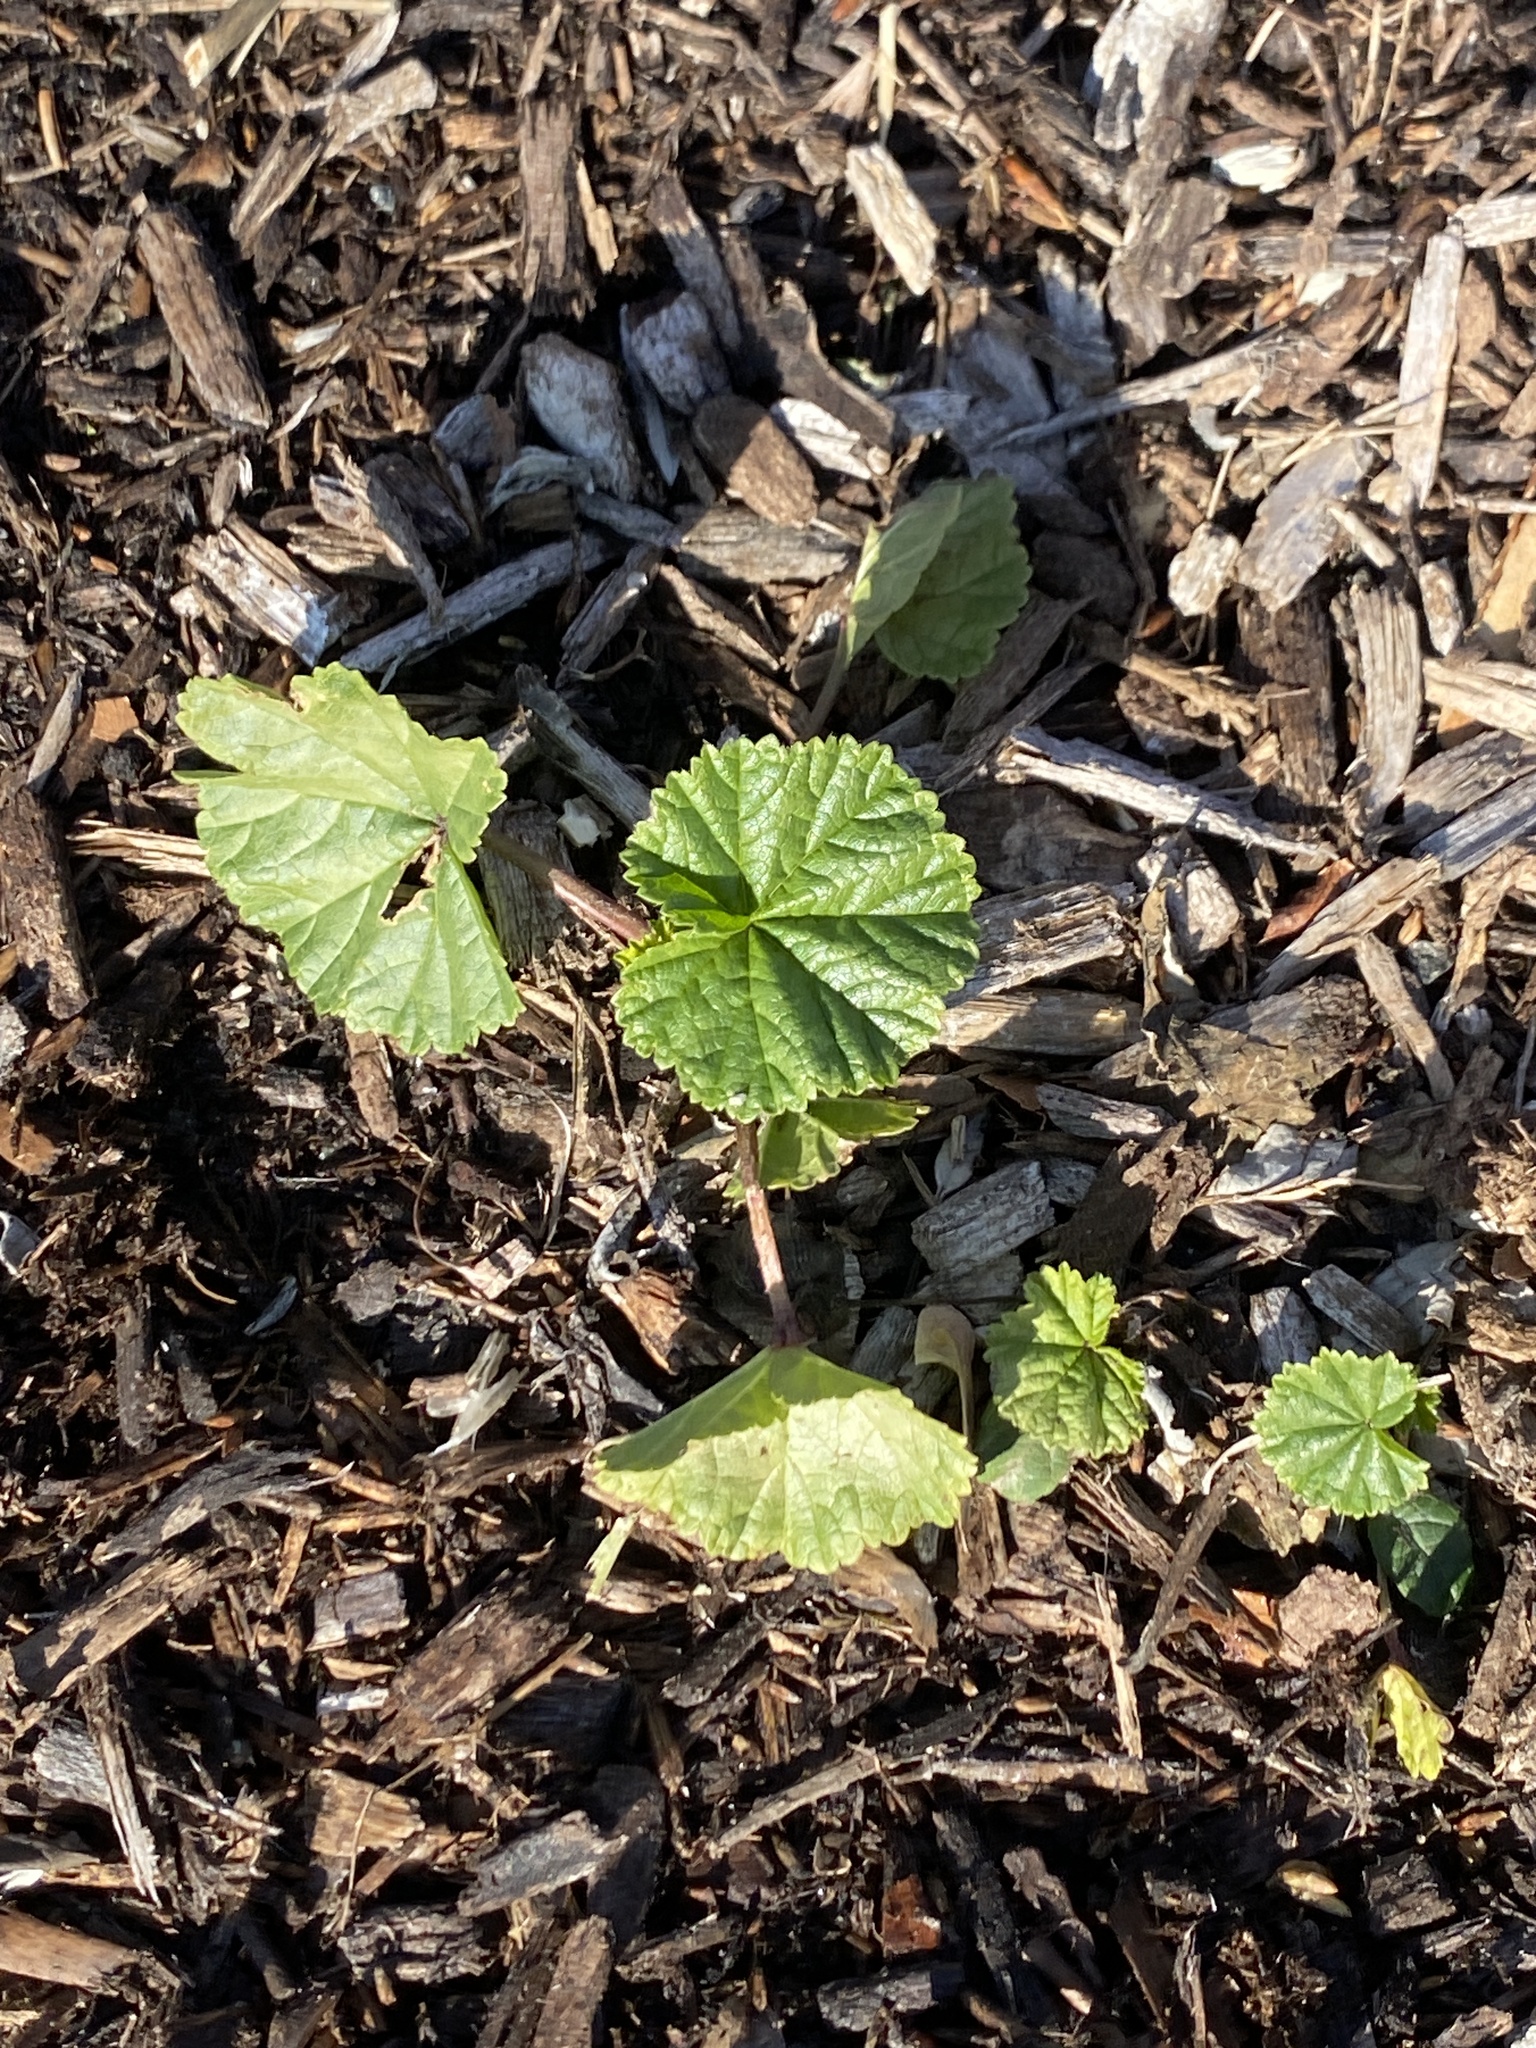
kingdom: Plantae
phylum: Tracheophyta
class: Magnoliopsida
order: Malvales
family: Malvaceae
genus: Malva
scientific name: Malva neglecta
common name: Common mallow
